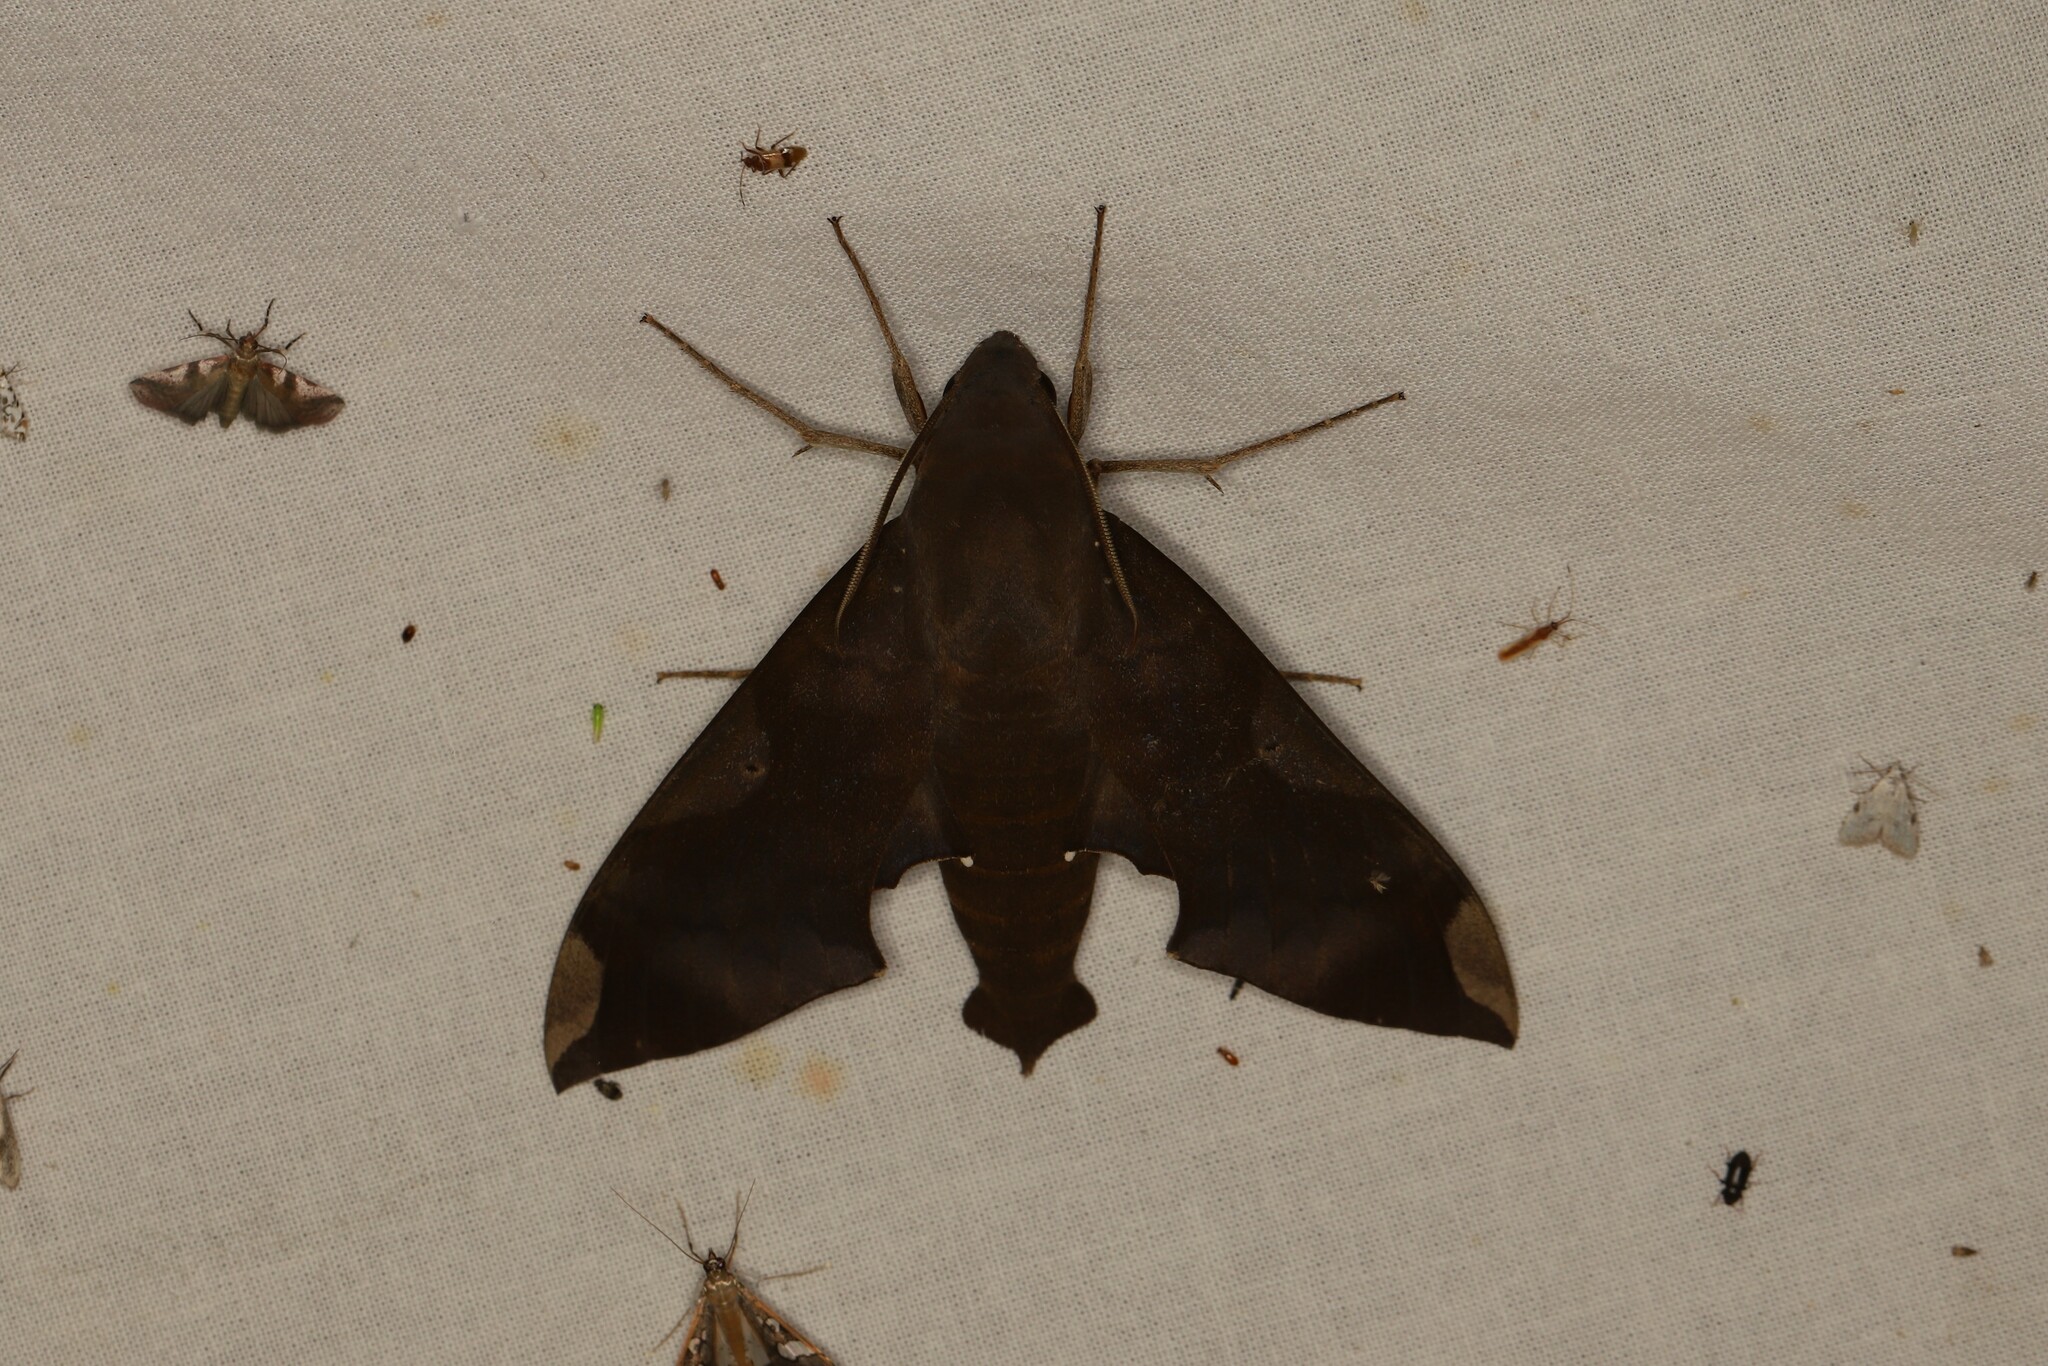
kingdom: Animalia
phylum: Arthropoda
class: Insecta
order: Lepidoptera
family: Sphingidae
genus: Pachylia
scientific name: Pachylia syces
